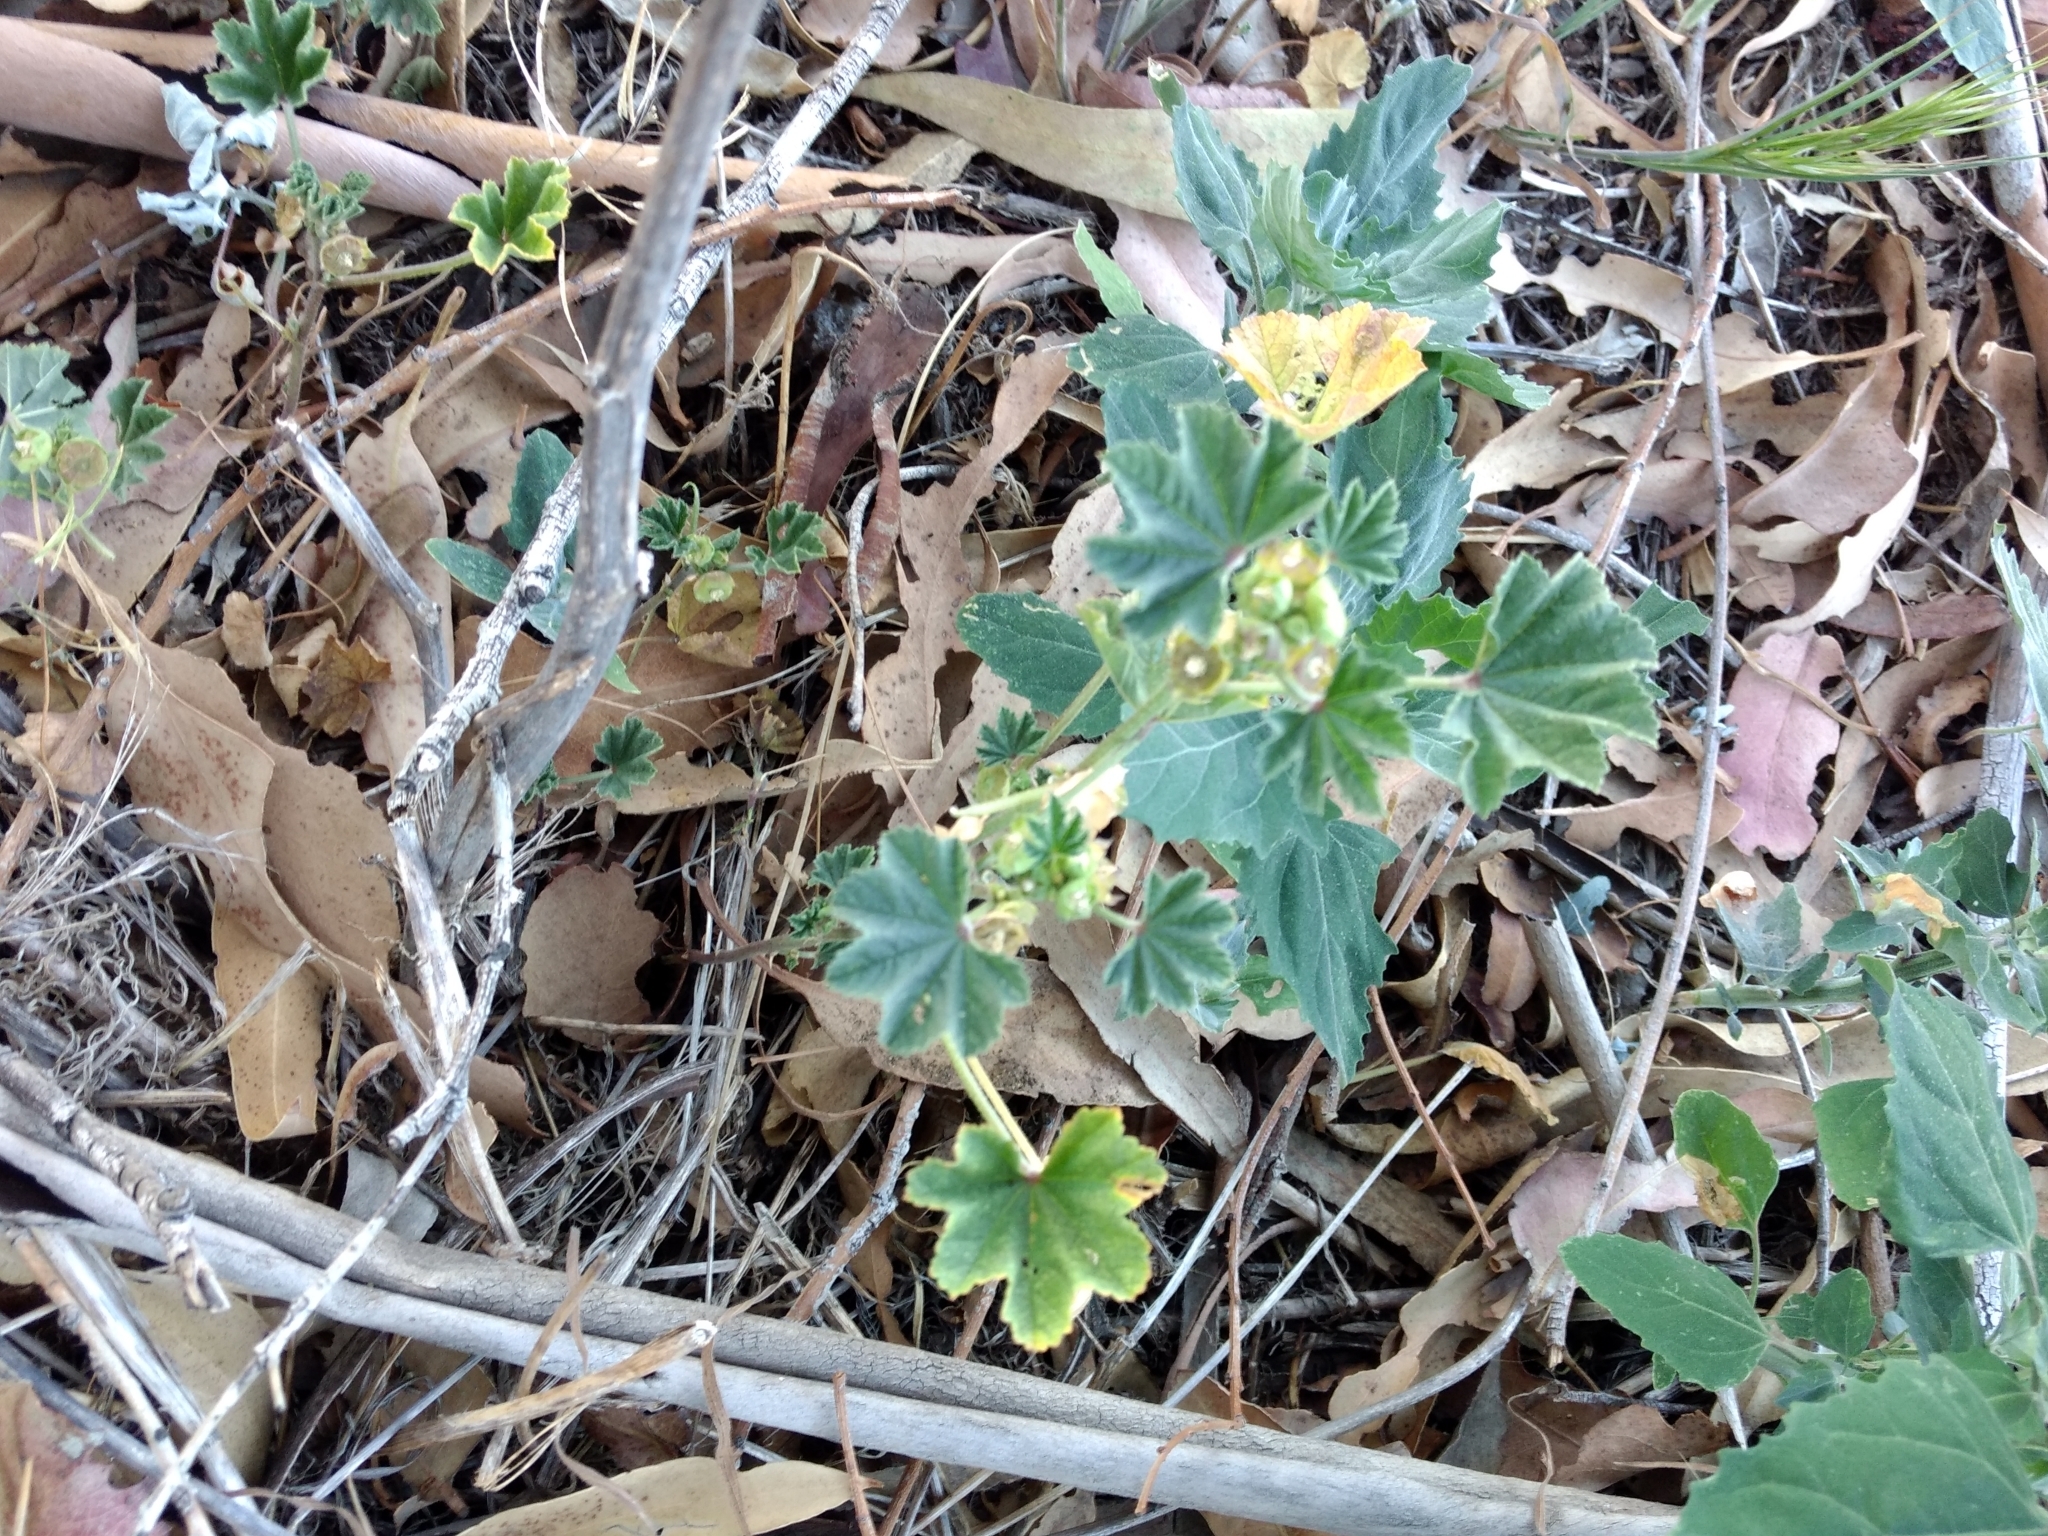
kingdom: Plantae
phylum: Tracheophyta
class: Magnoliopsida
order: Malvales
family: Malvaceae
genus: Malva
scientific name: Malva parviflora
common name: Least mallow
